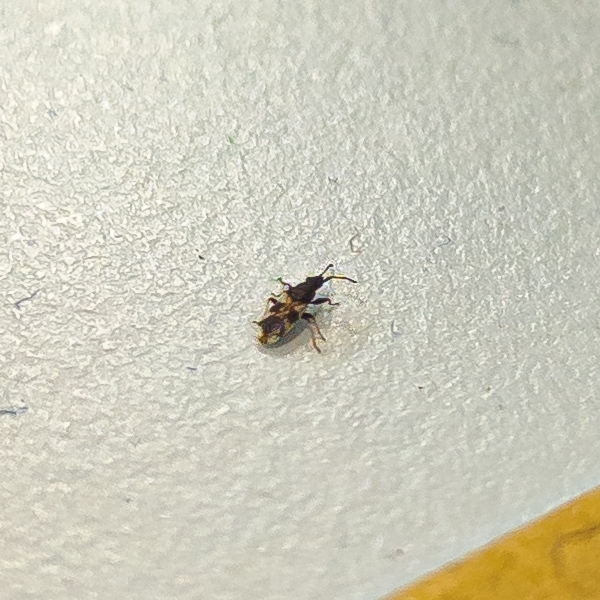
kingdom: Animalia
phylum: Arthropoda
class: Insecta
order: Hemiptera
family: Oxycarenidae
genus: Macroplax
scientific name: Macroplax fasciata
